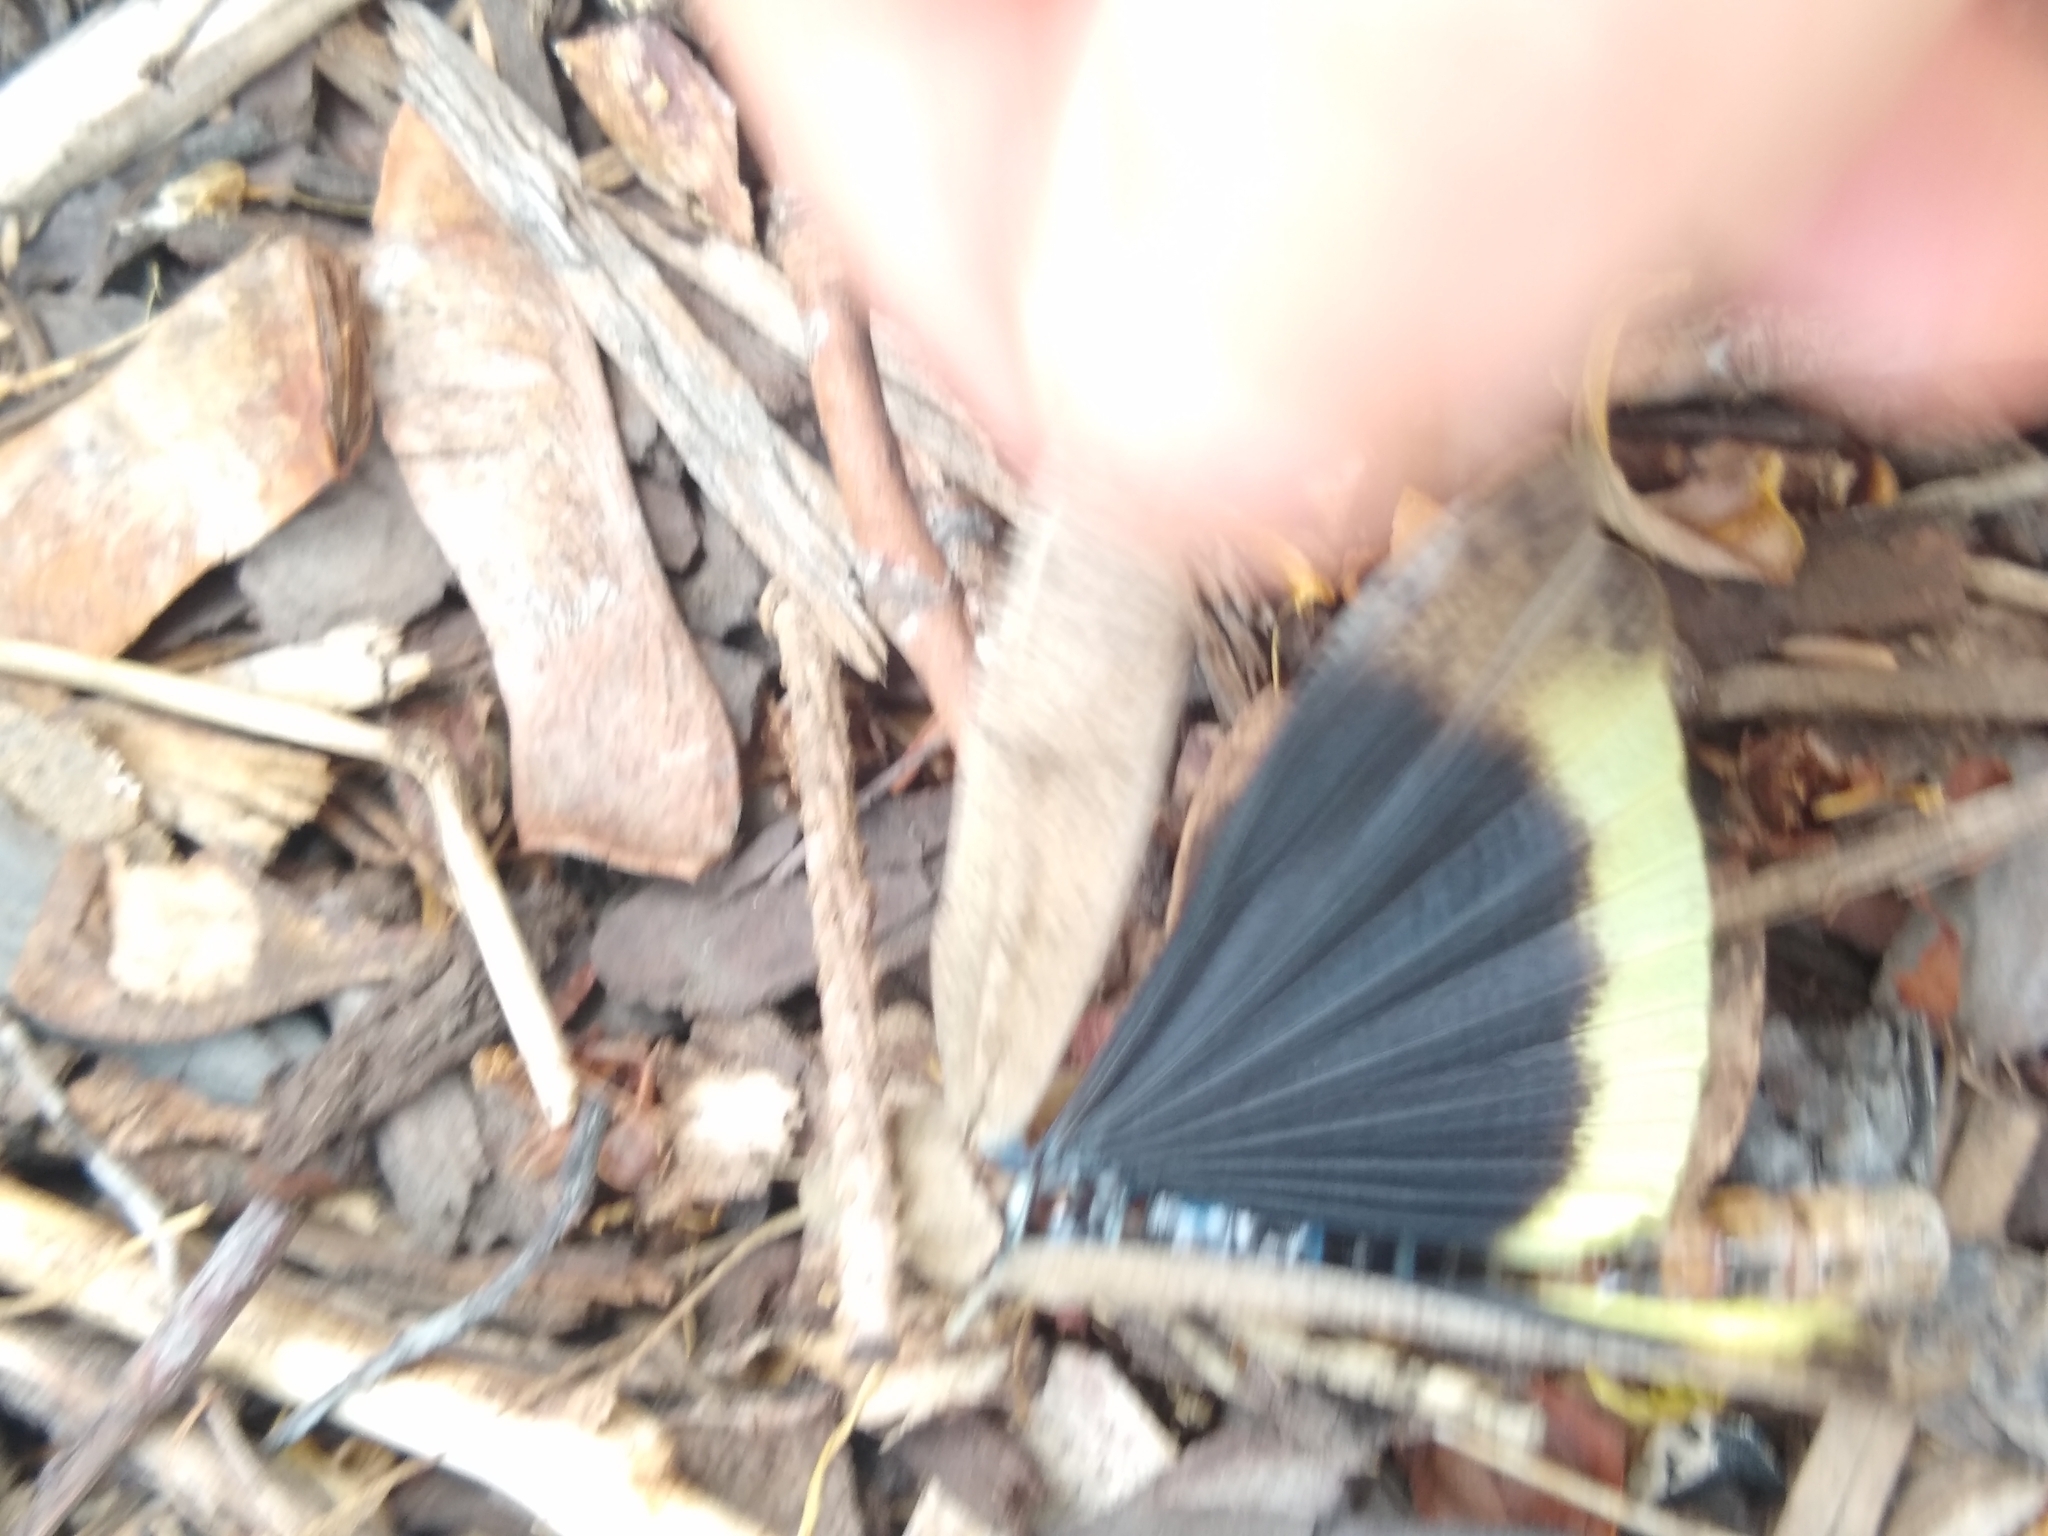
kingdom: Animalia
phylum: Arthropoda
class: Insecta
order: Orthoptera
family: Acrididae
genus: Dissosteira
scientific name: Dissosteira carolina
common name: Carolina grasshopper
